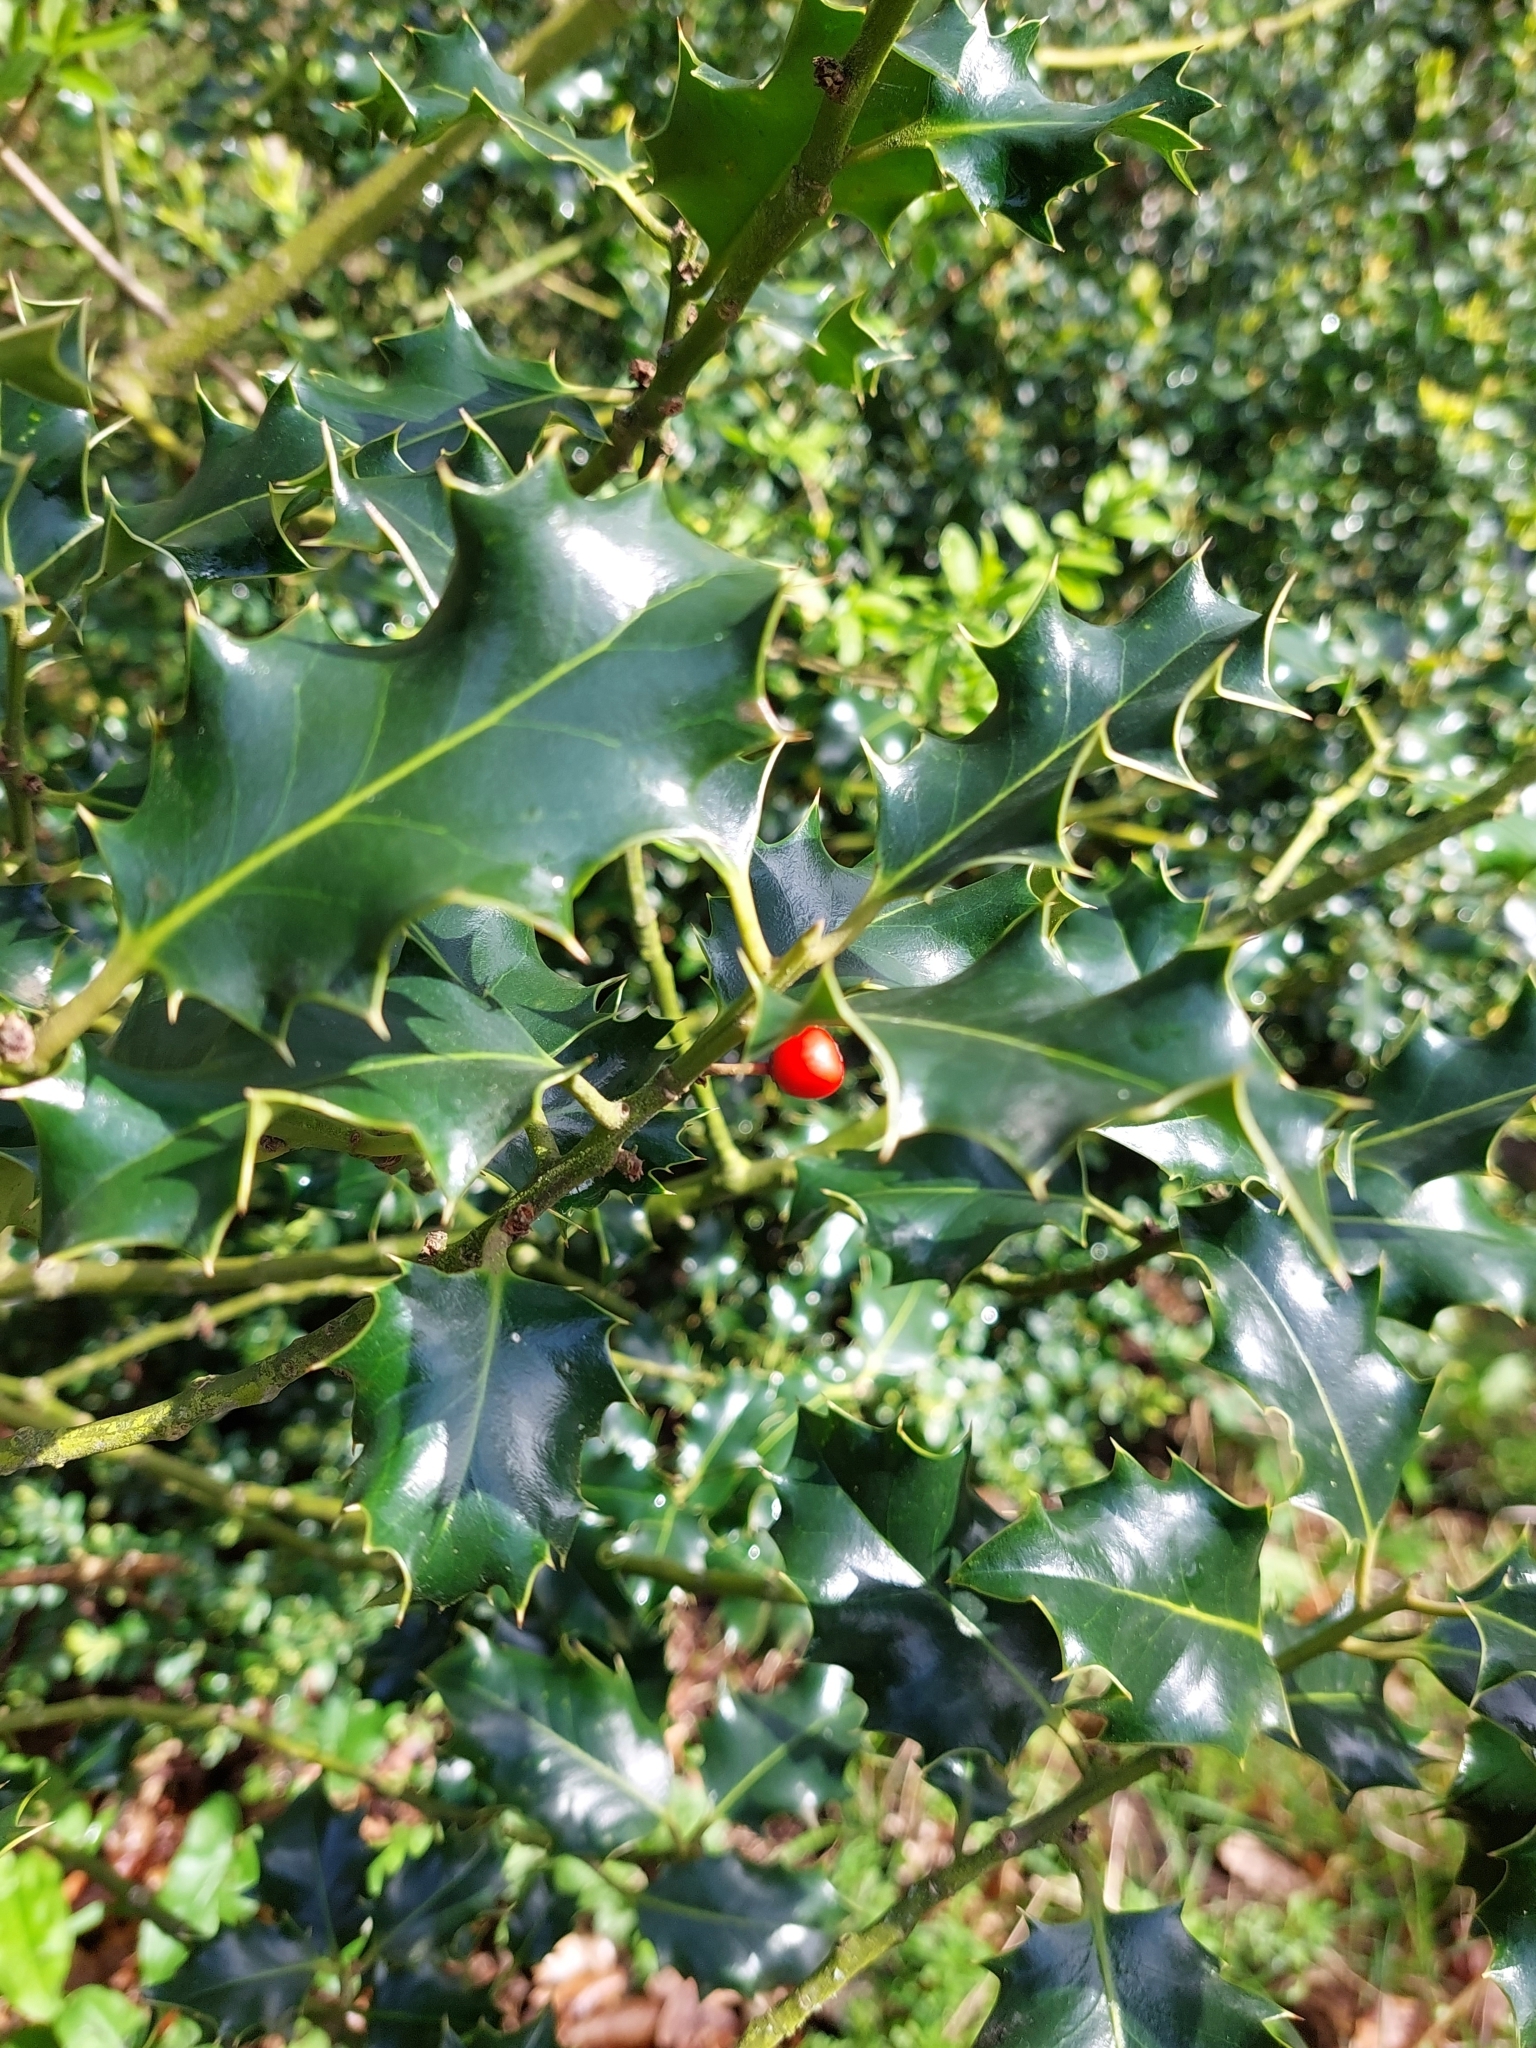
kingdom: Plantae
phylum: Tracheophyta
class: Magnoliopsida
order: Aquifoliales
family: Aquifoliaceae
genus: Ilex
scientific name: Ilex aquifolium
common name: English holly
